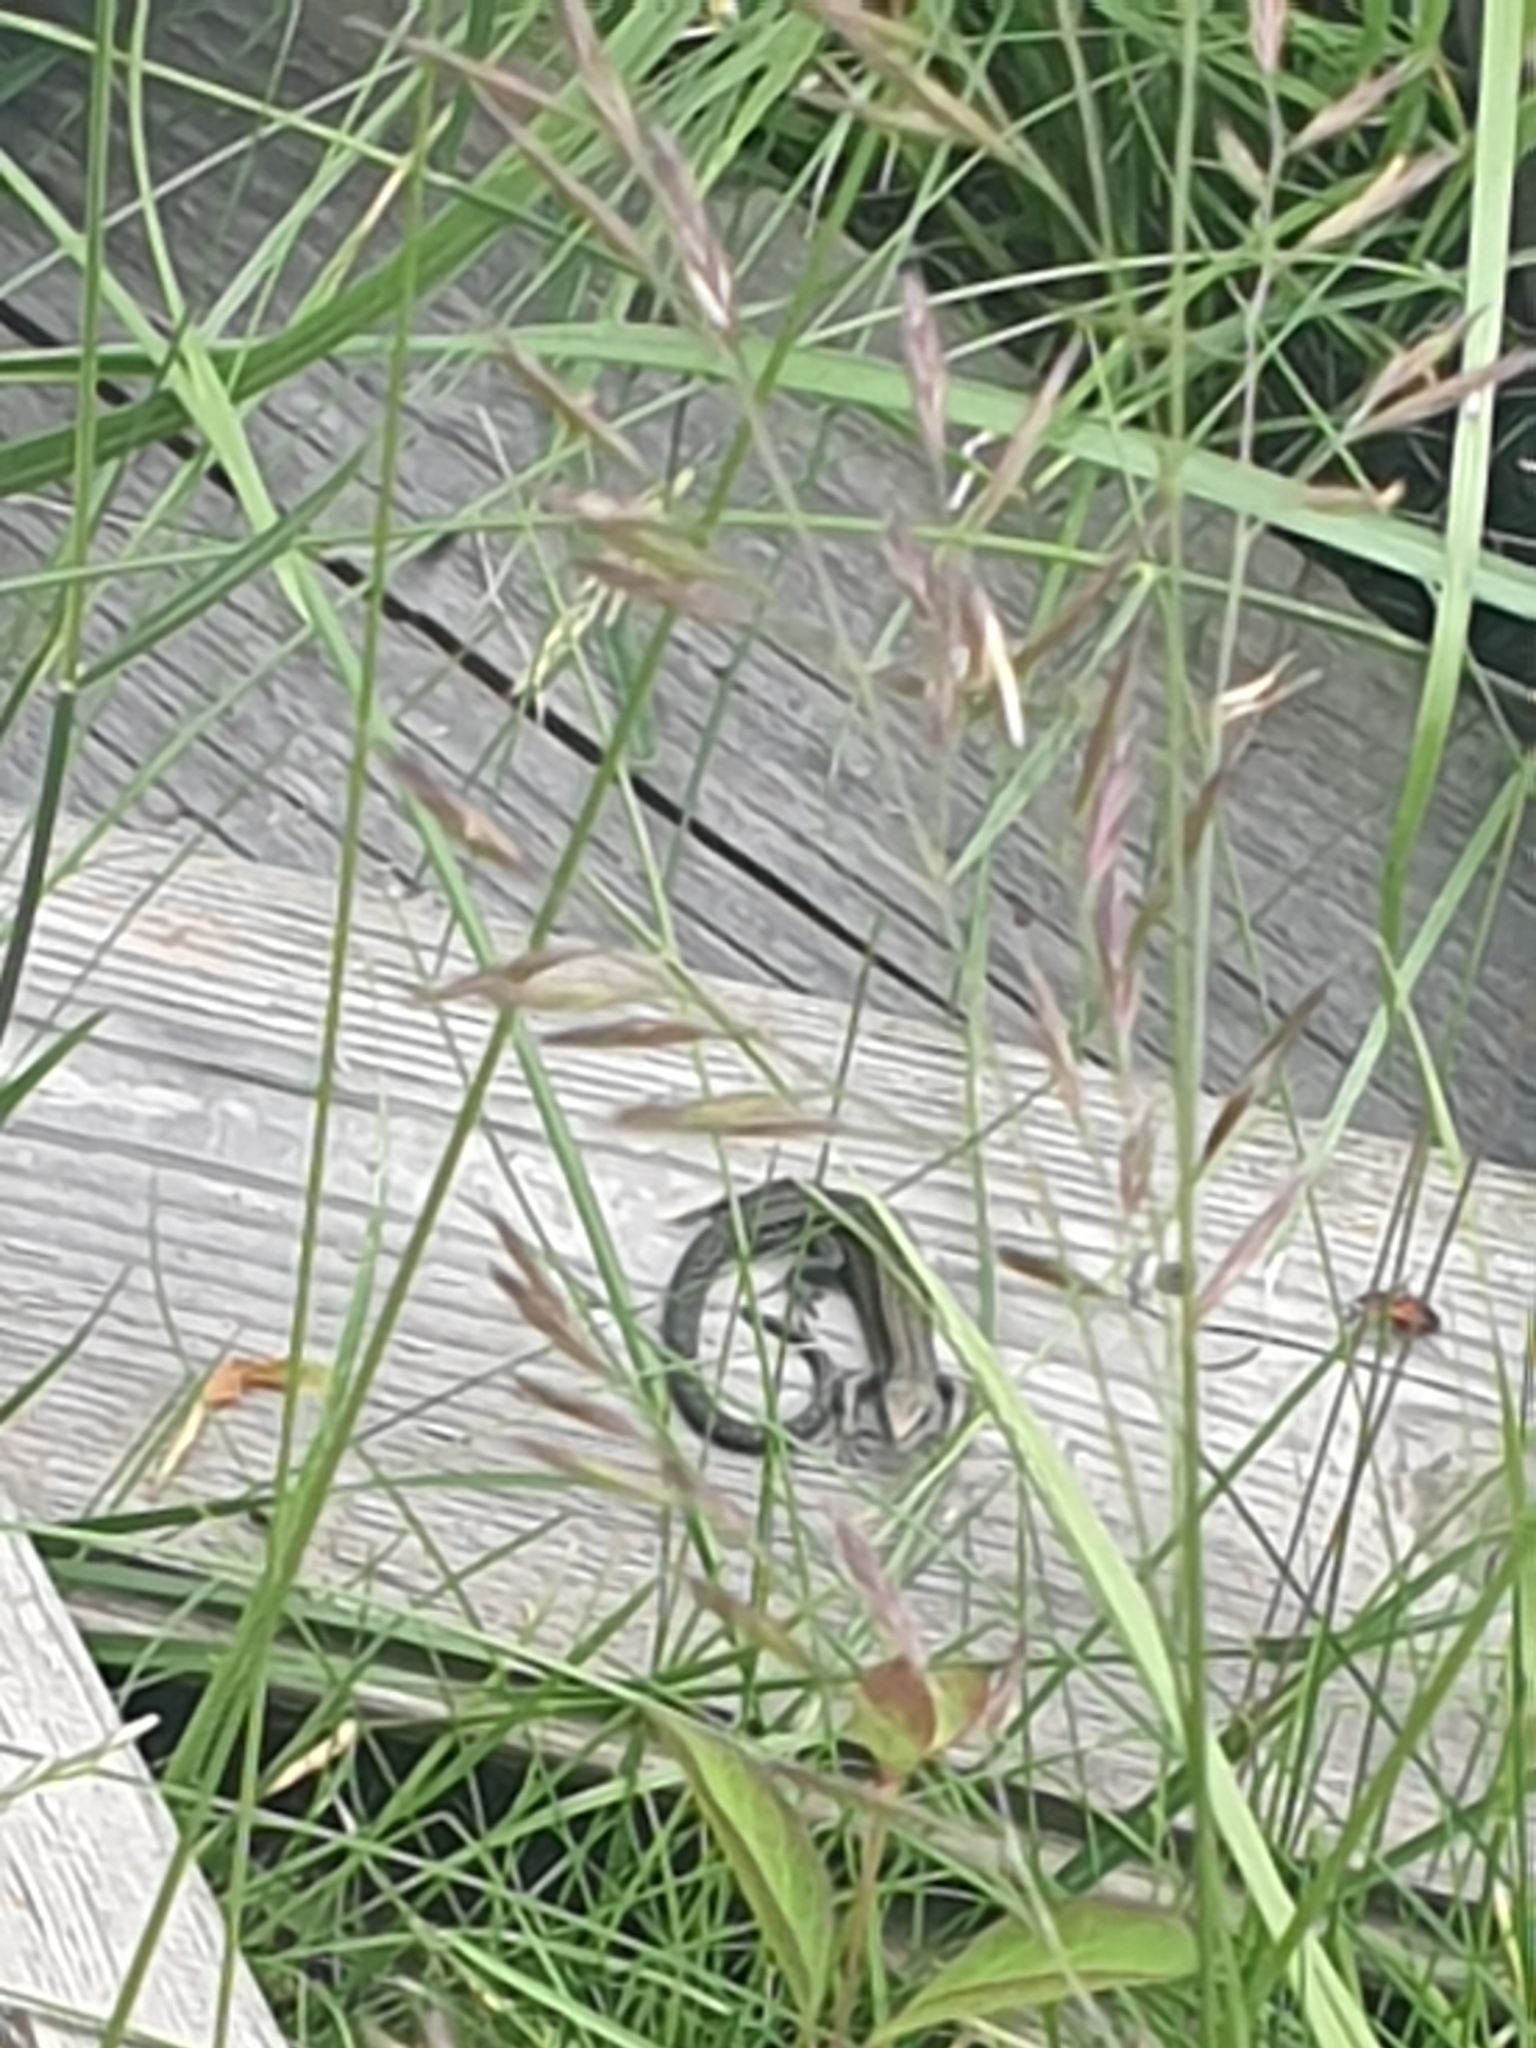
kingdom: Animalia
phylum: Chordata
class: Squamata
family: Lacertidae
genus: Zootoca
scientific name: Zootoca vivipara
